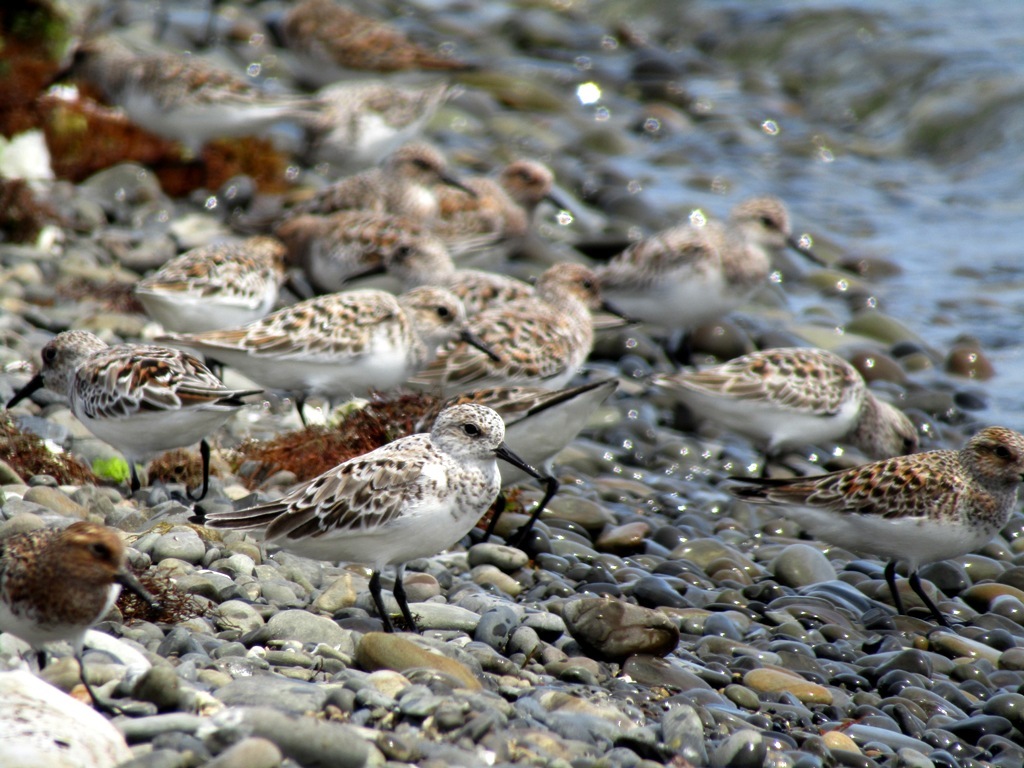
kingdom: Animalia
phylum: Chordata
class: Aves
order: Charadriiformes
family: Scolopacidae
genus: Calidris
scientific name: Calidris alba
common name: Sanderling
